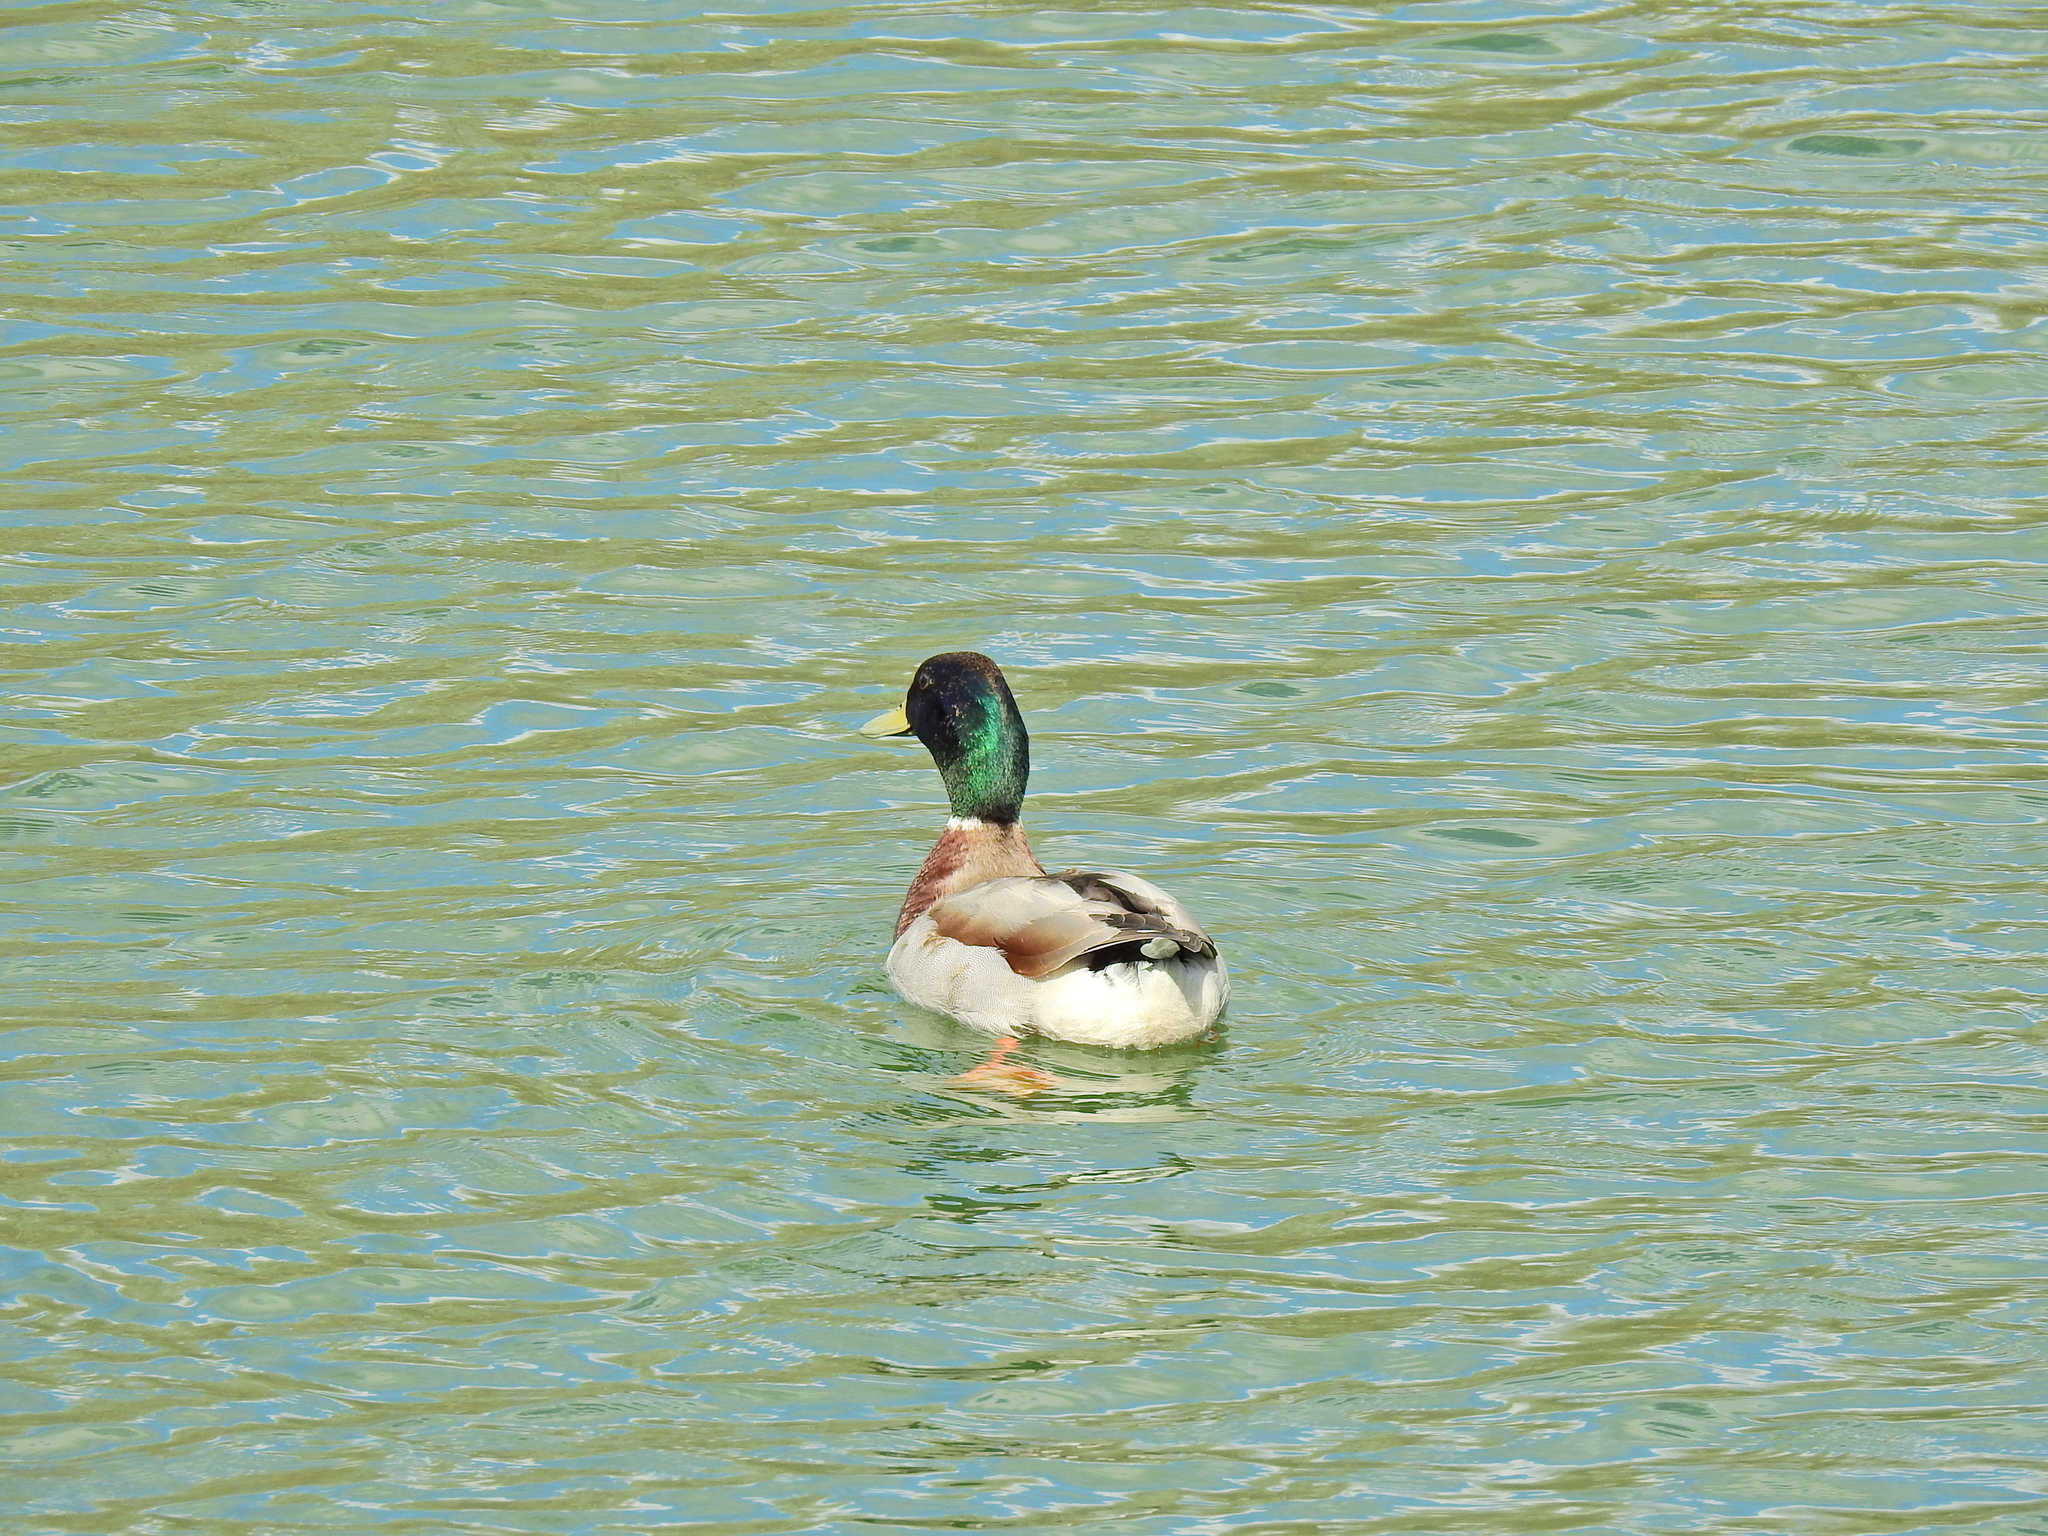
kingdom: Animalia
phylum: Chordata
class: Aves
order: Anseriformes
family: Anatidae
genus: Anas
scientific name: Anas platyrhynchos
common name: Mallard
